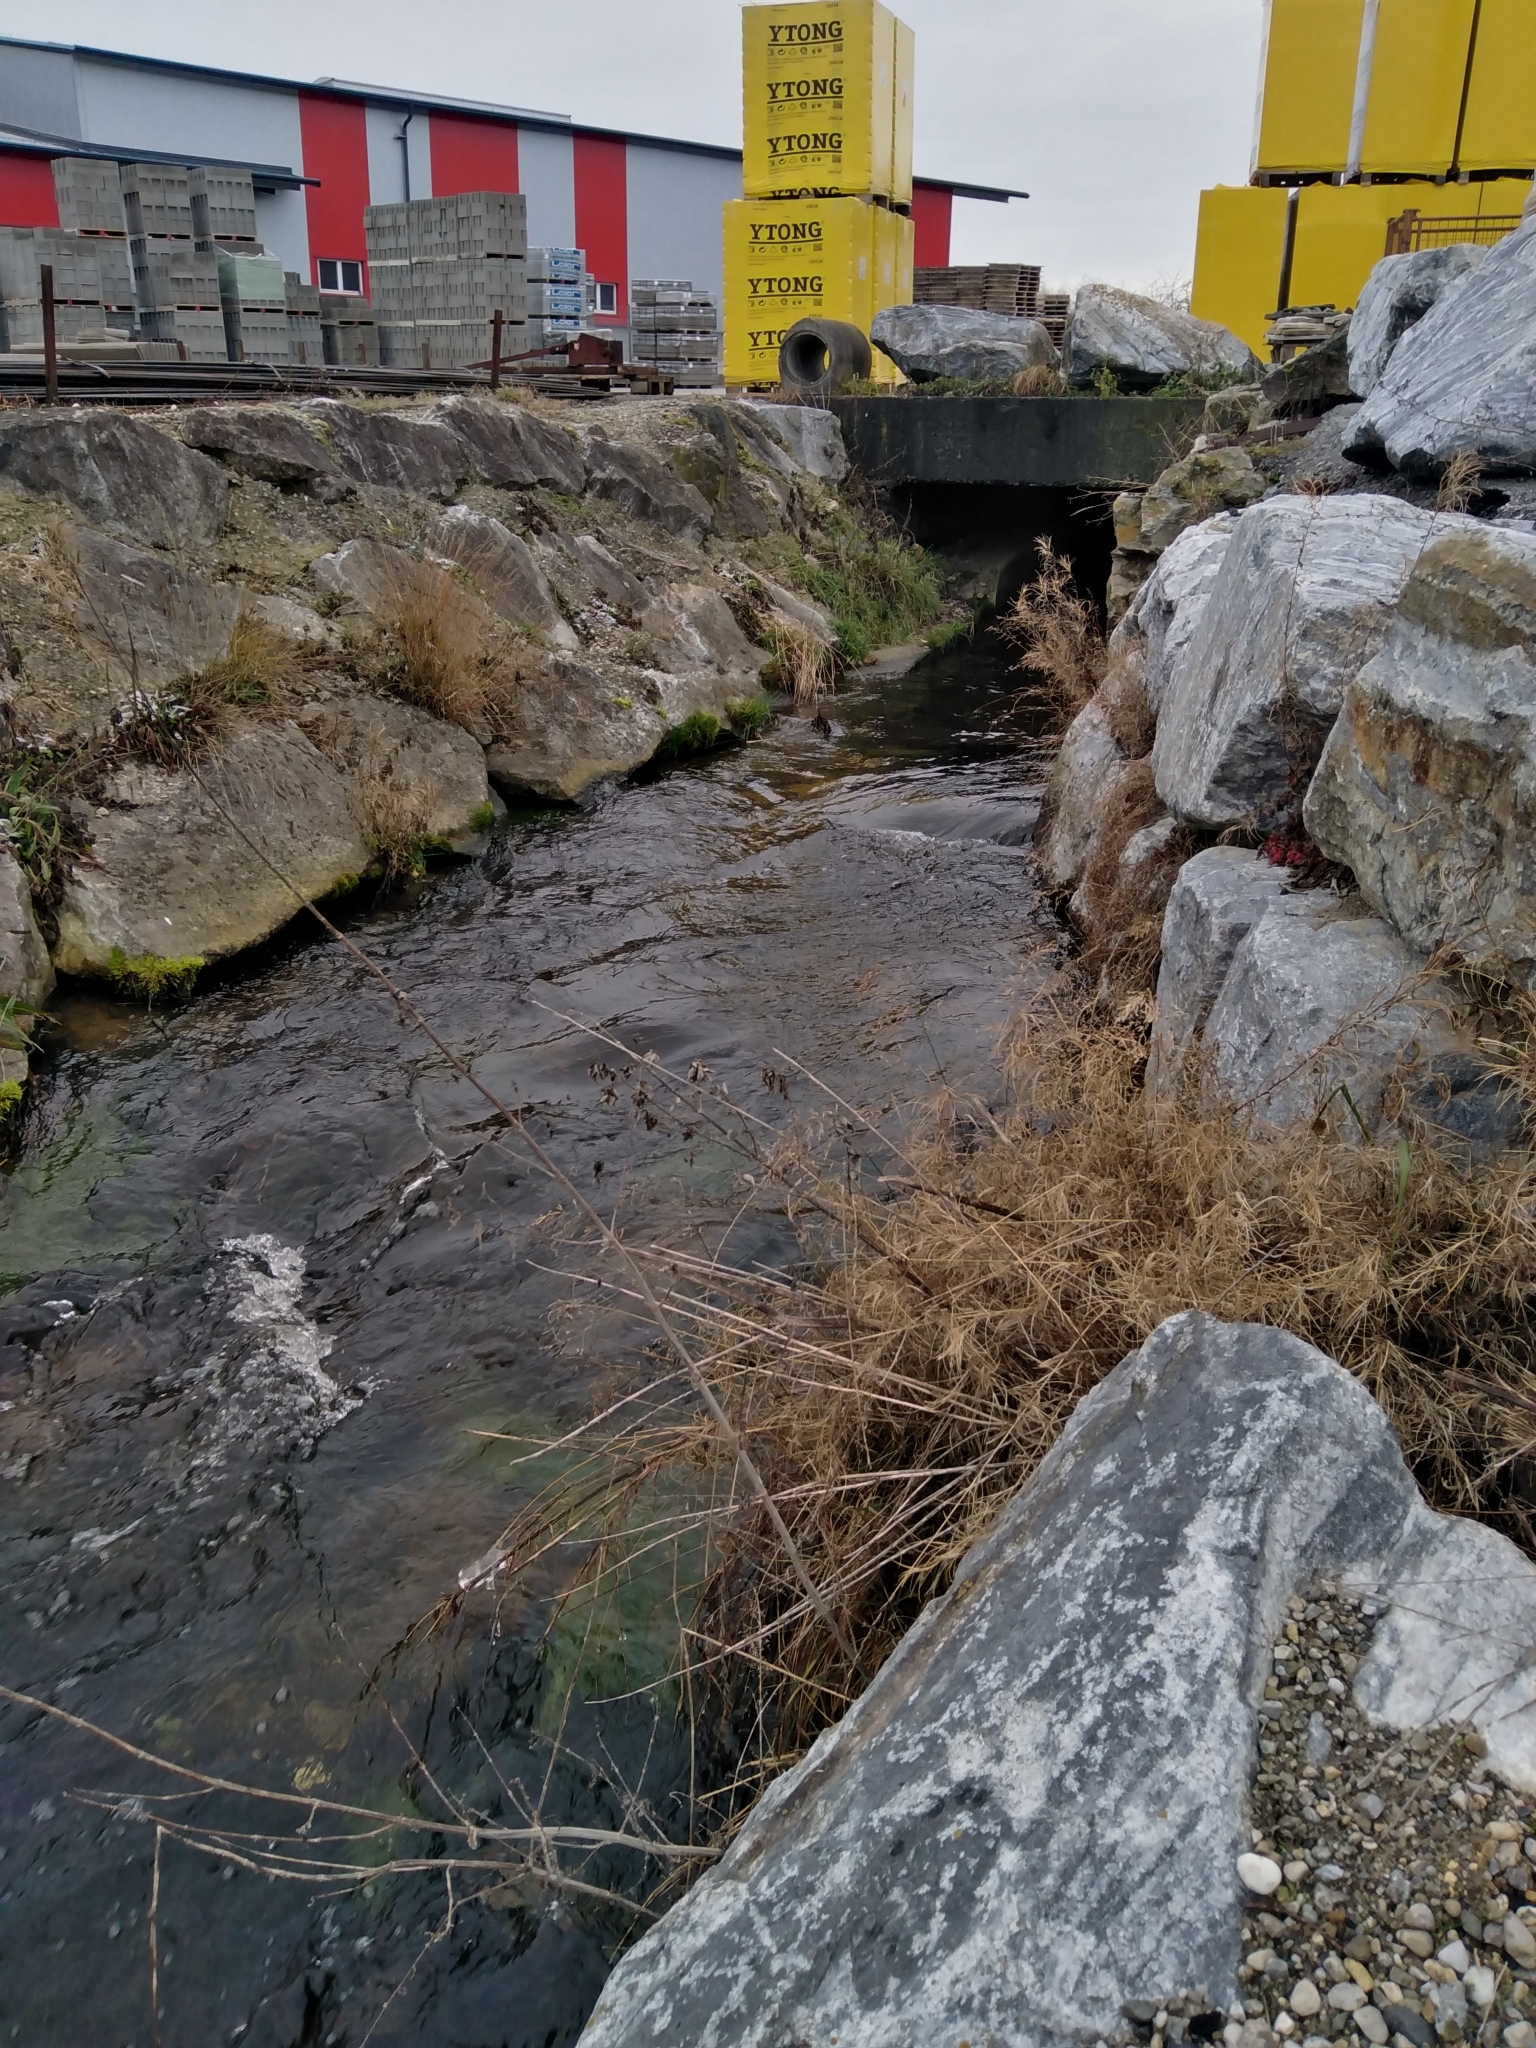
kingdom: Plantae
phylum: Bryophyta
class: Bryopsida
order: Hypnales
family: Fontinalaceae
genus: Fontinalis
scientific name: Fontinalis antipyretica
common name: Greater water-moss
